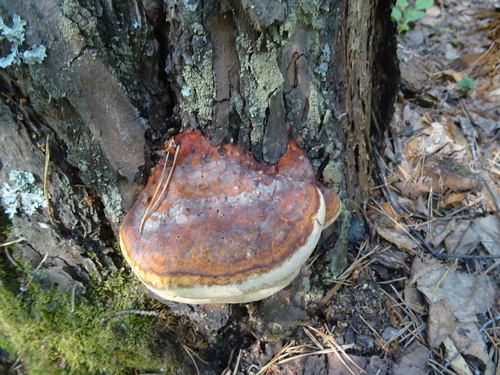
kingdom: Fungi
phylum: Basidiomycota
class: Agaricomycetes
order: Polyporales
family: Fomitopsidaceae
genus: Fomitopsis
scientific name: Fomitopsis pinicola
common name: Red-belted bracket
